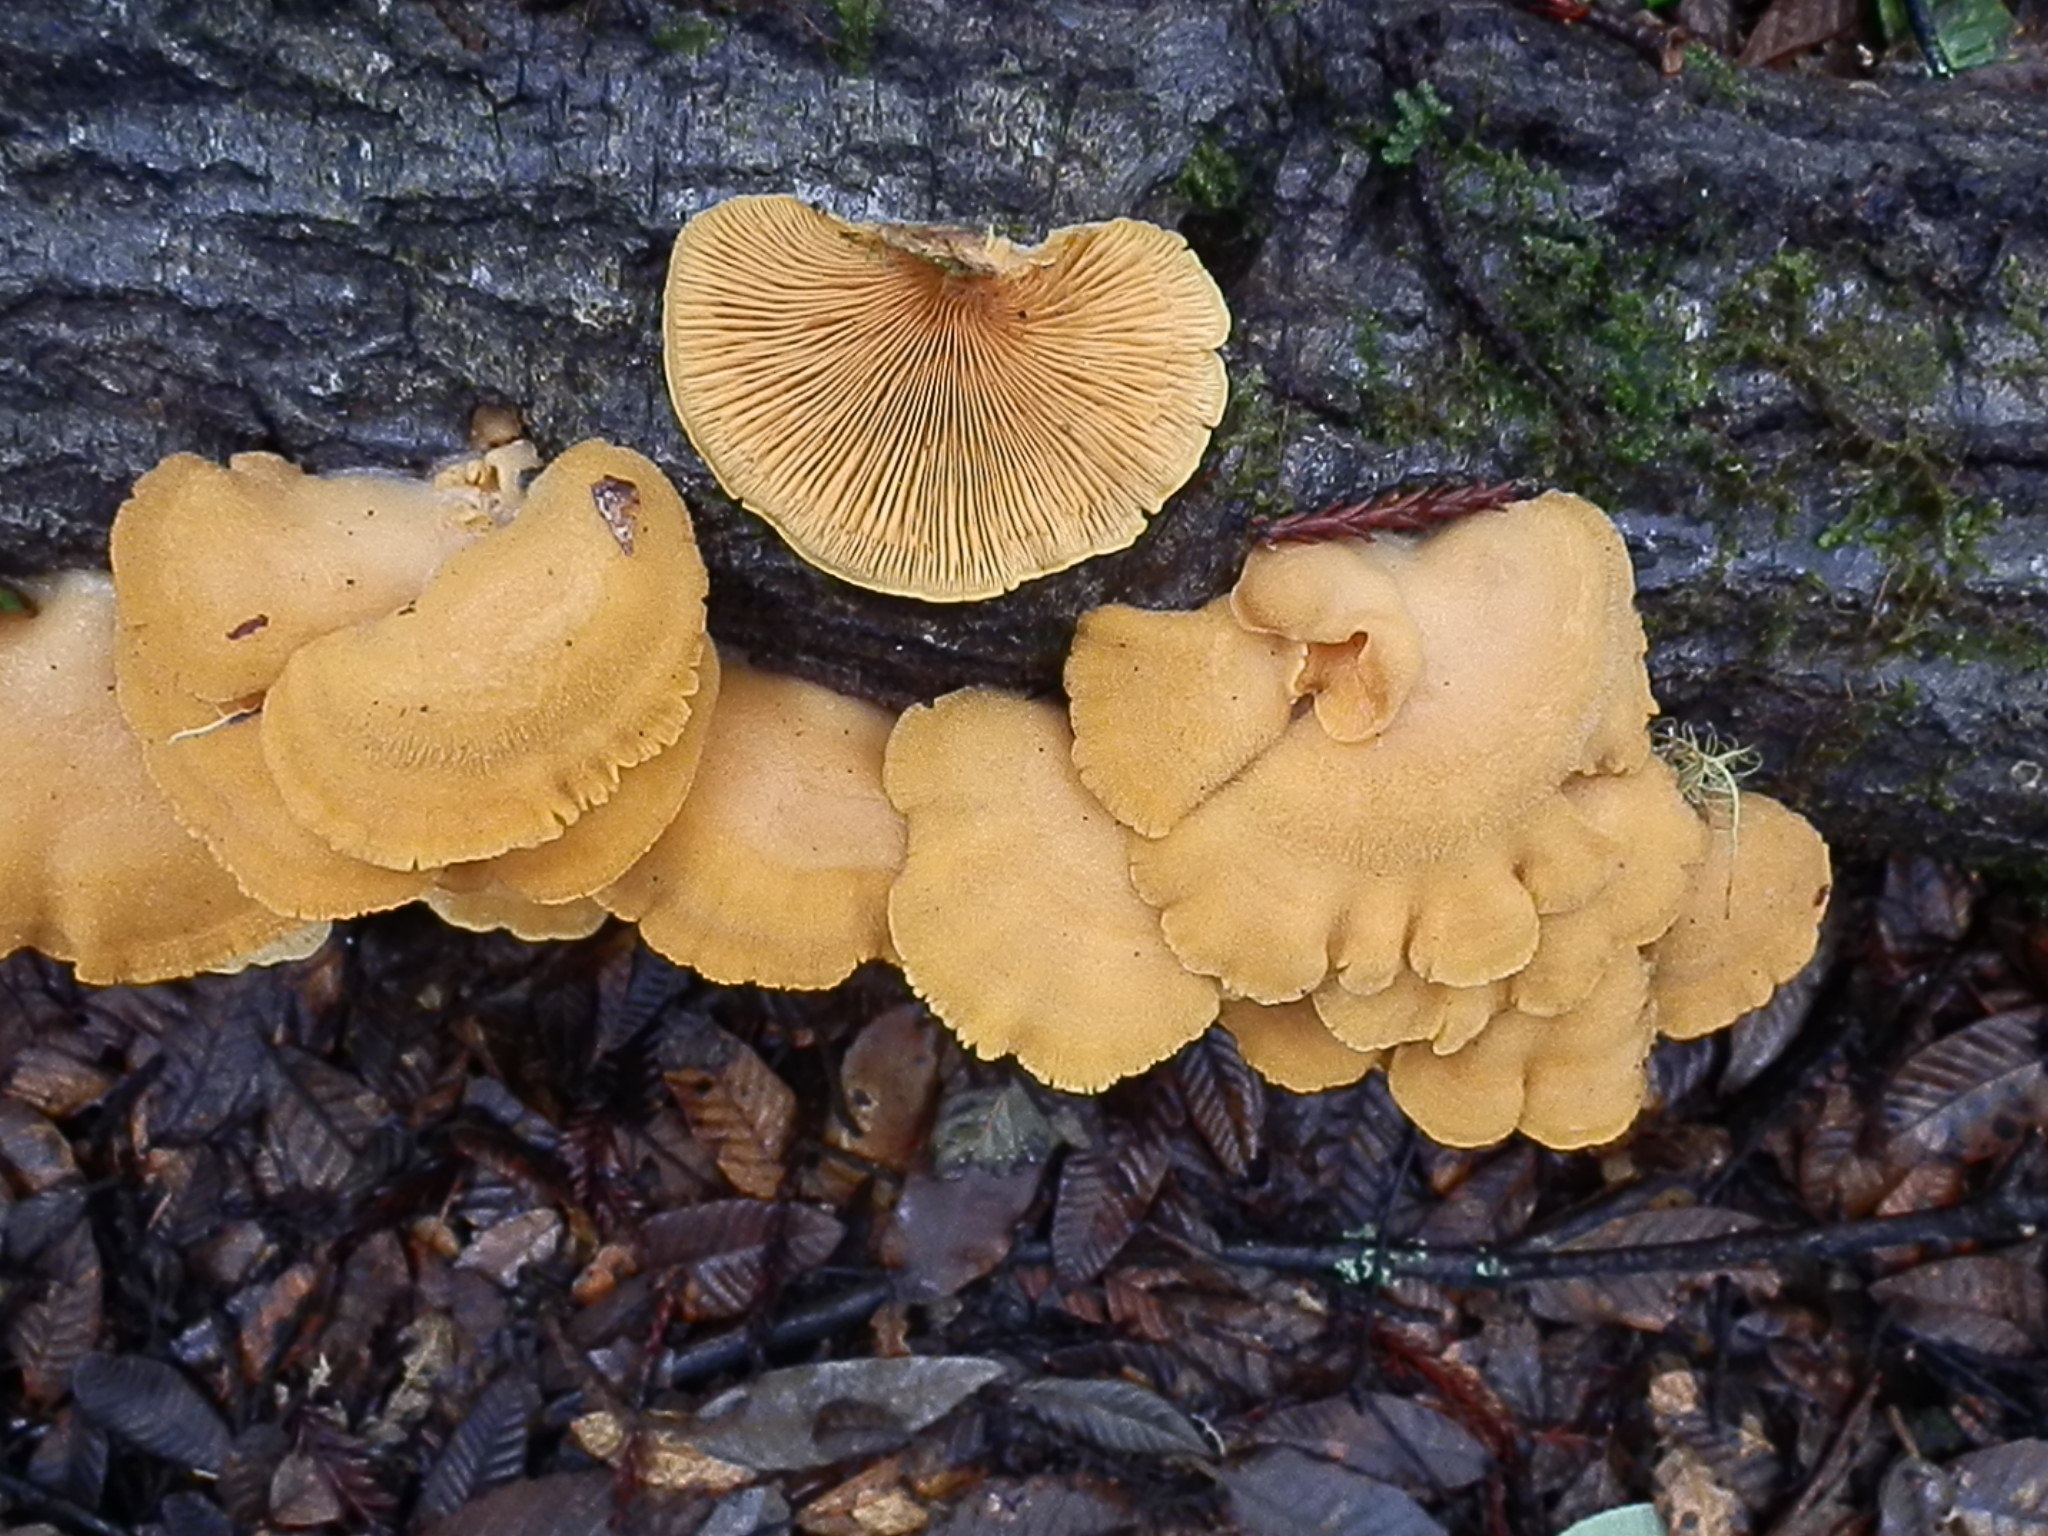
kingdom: Fungi
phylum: Basidiomycota
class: Agaricomycetes
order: Agaricales
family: Phyllotopsidaceae
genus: Phyllotopsis
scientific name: Phyllotopsis nidulans
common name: Orange mock oyster
